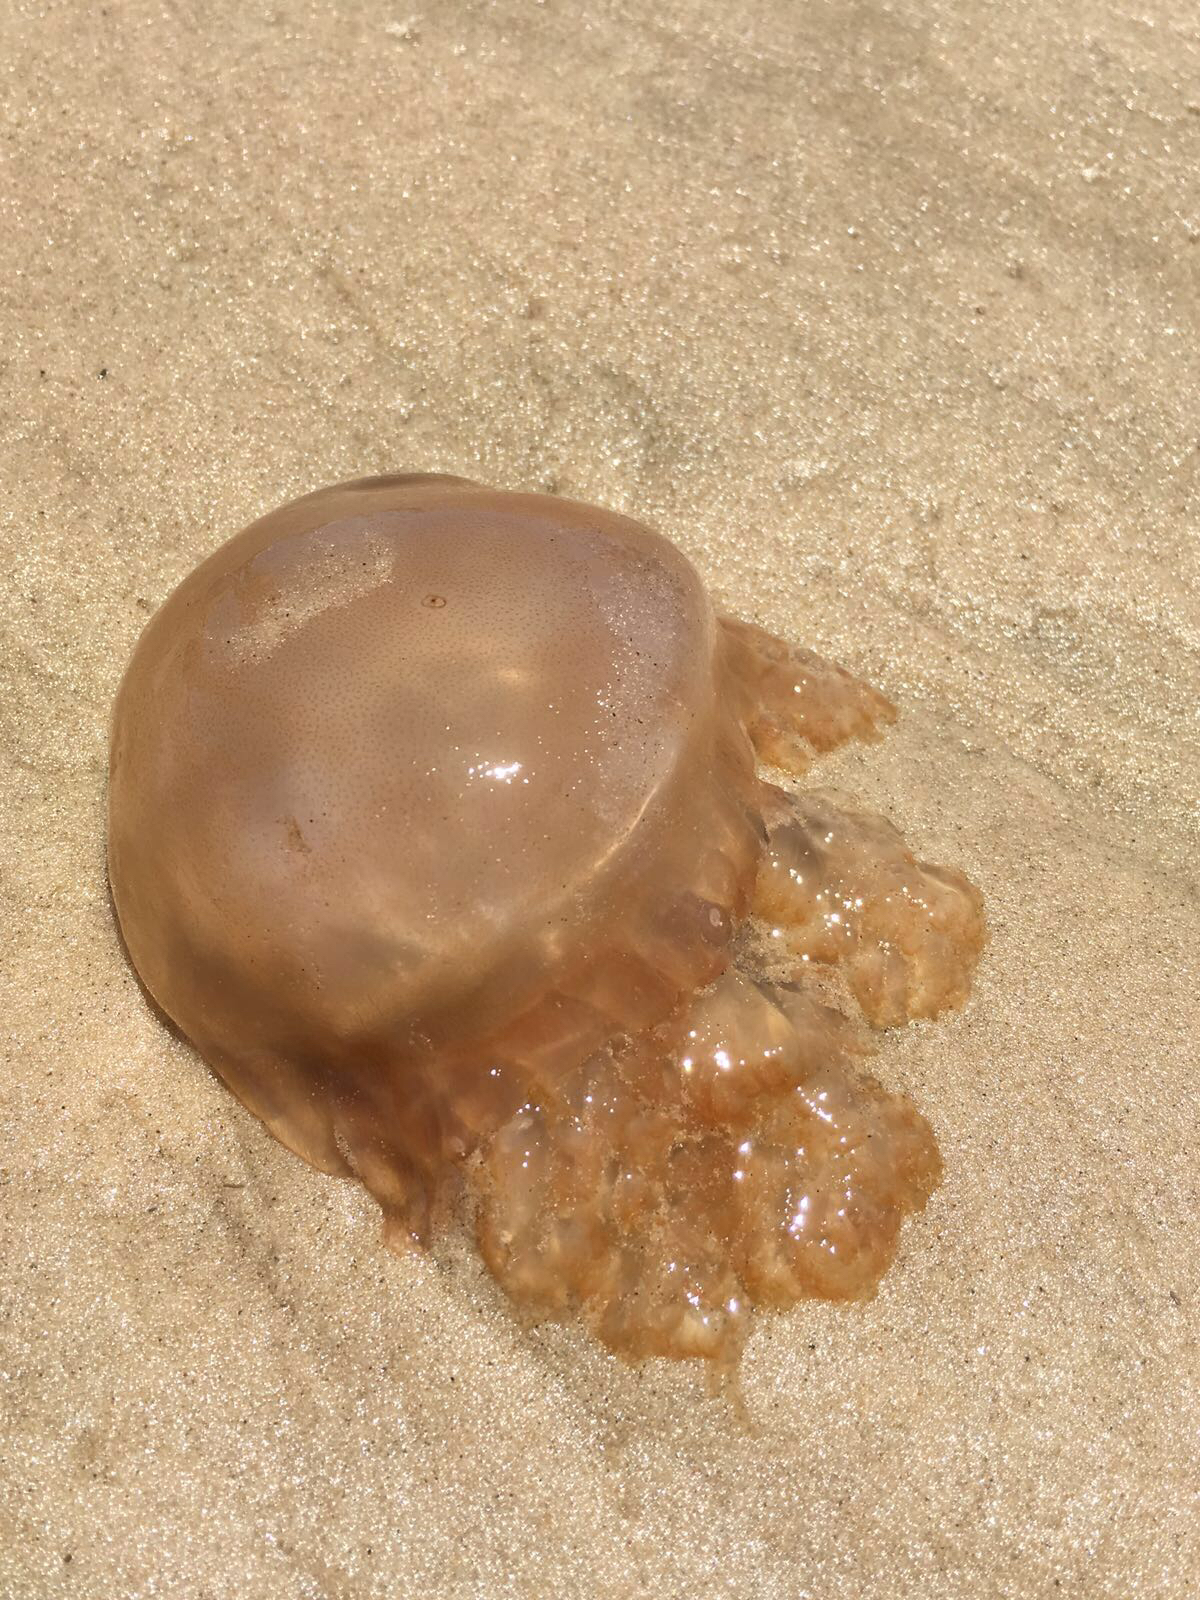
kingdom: Animalia
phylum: Cnidaria
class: Scyphozoa
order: Rhizostomeae
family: Lychnorhizidae
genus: Lychnorhiza
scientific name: Lychnorhiza lucerna
